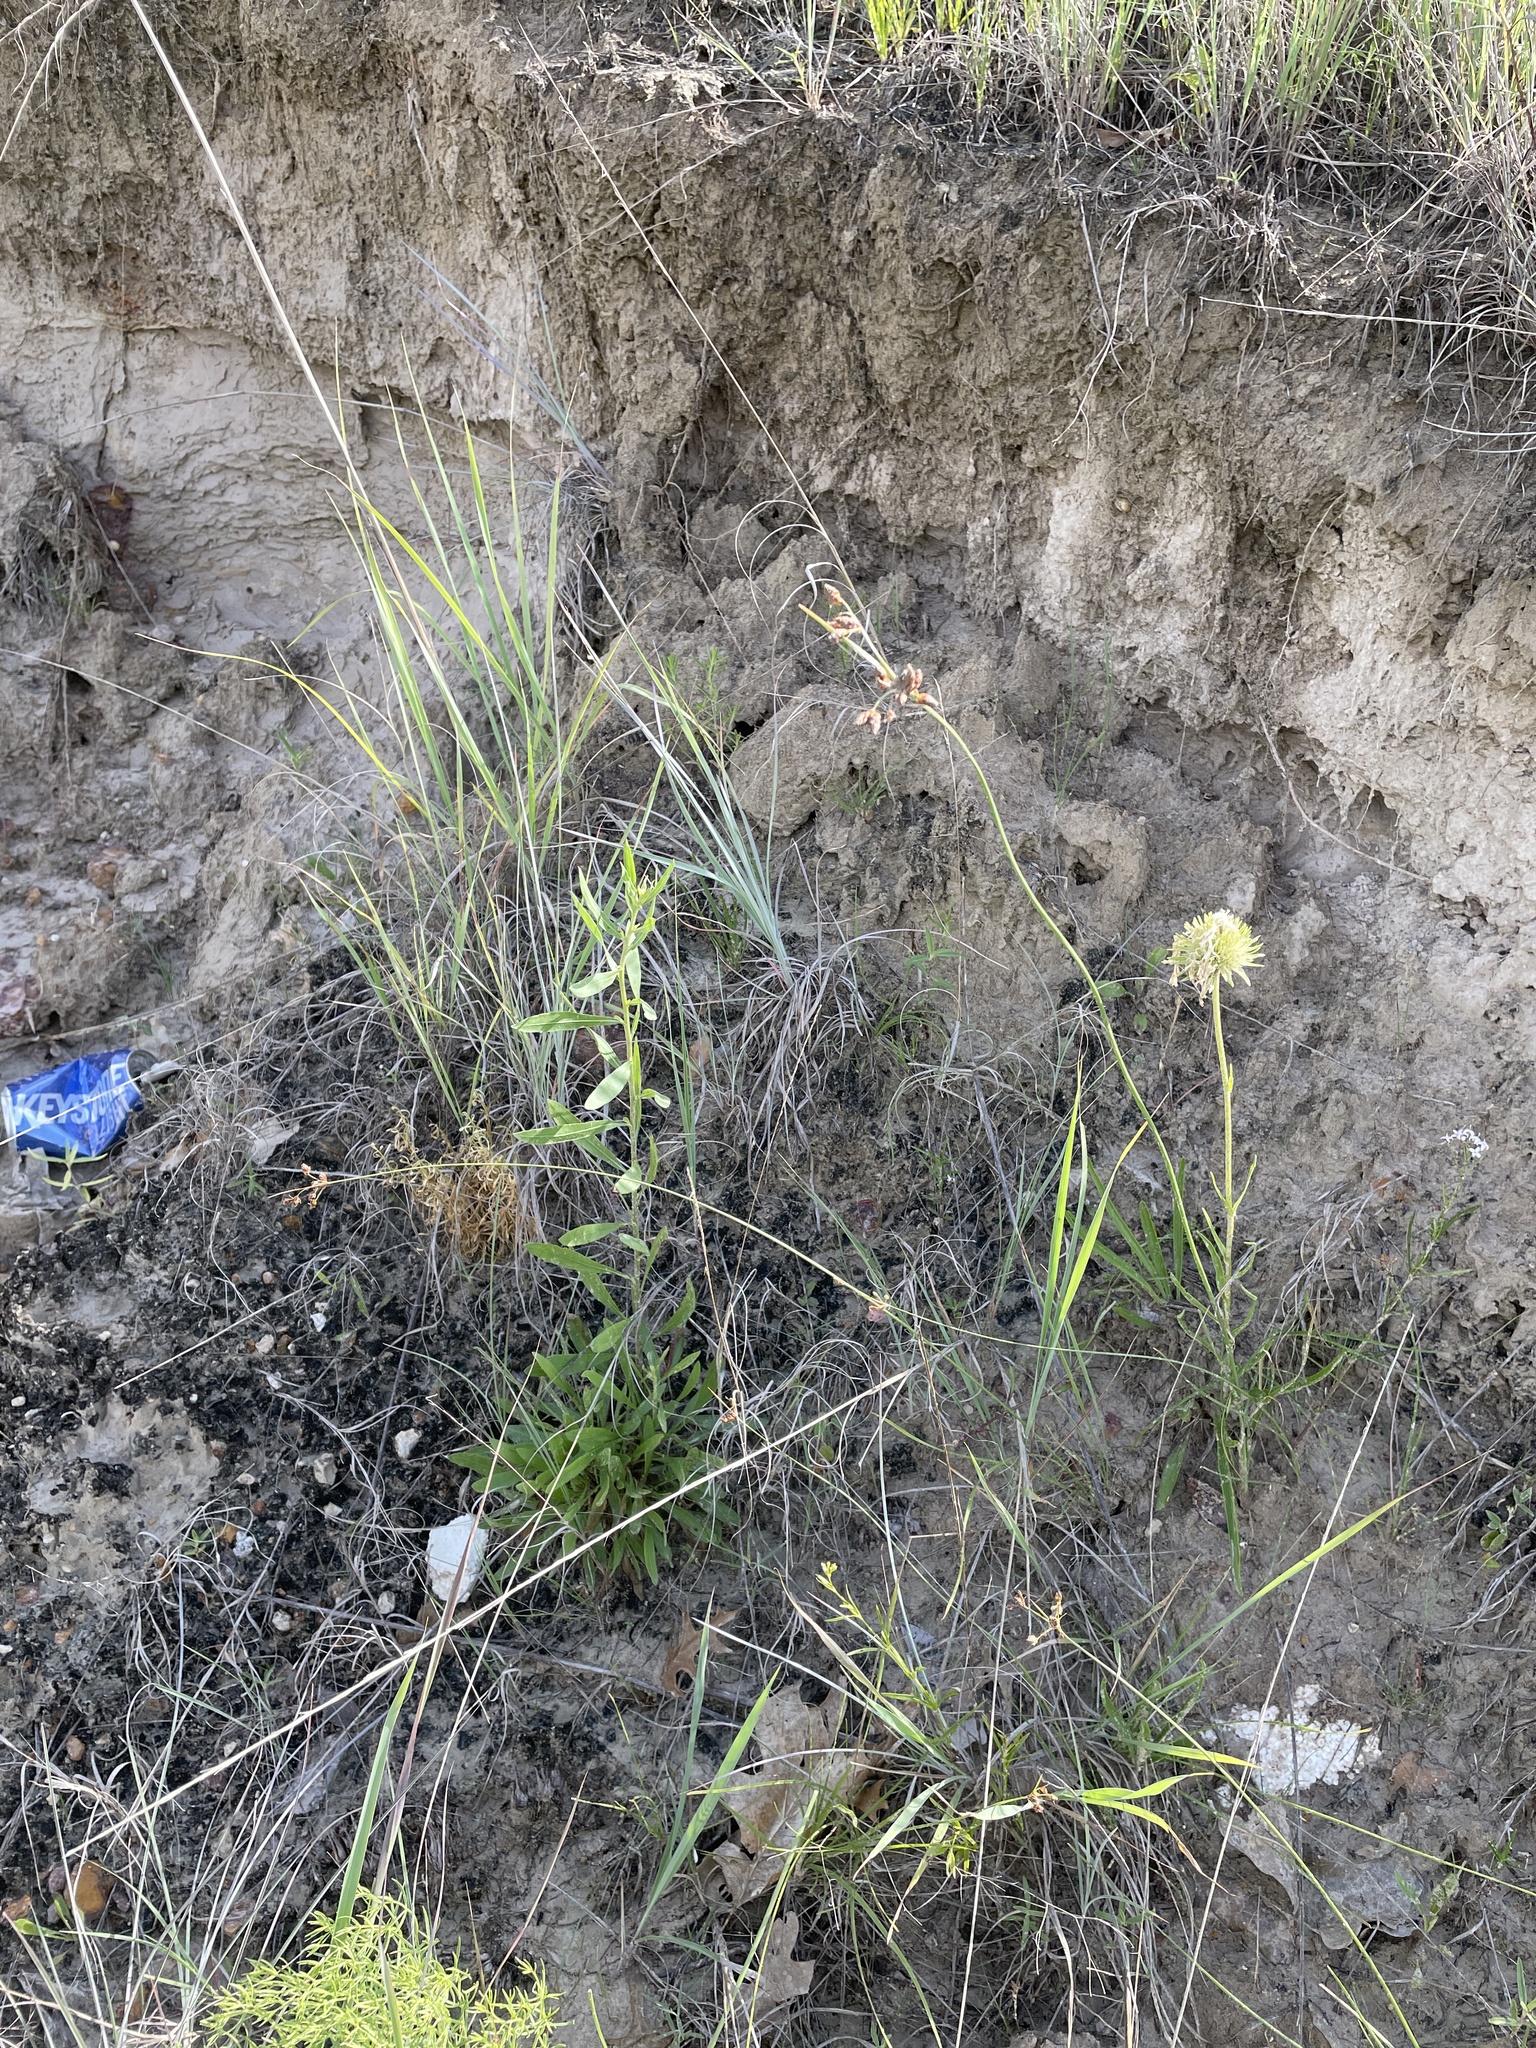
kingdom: Plantae
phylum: Tracheophyta
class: Liliopsida
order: Poales
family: Cyperaceae
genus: Fimbristylis
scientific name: Fimbristylis puberula
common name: Hairy fimbristylis
